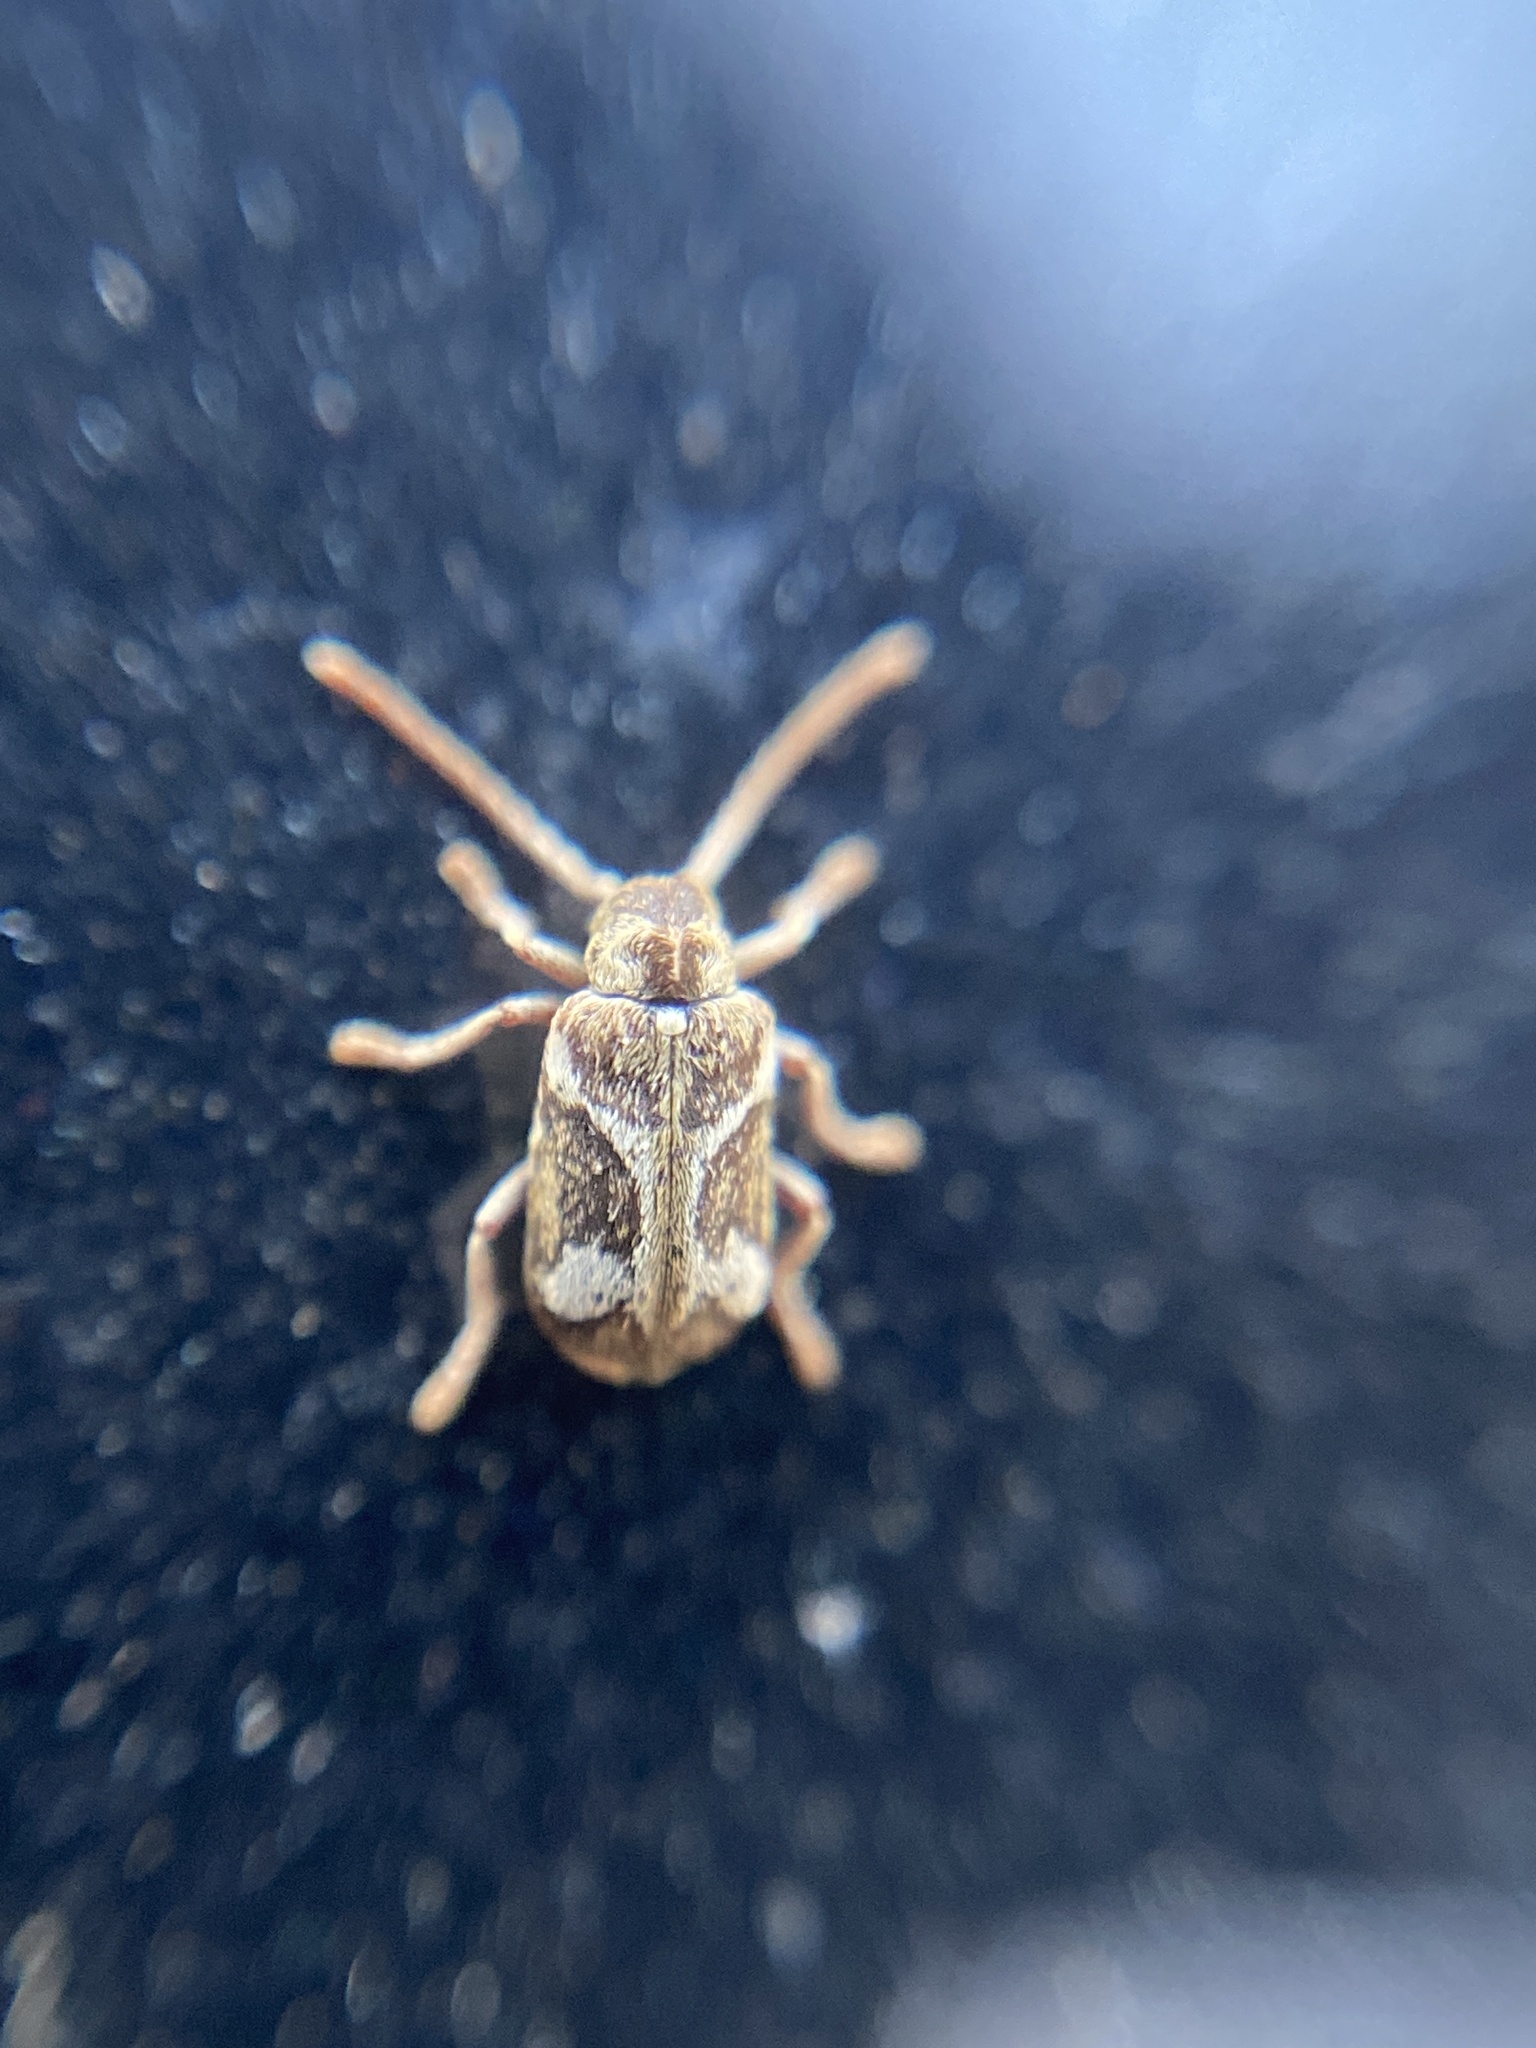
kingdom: Animalia
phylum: Arthropoda
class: Insecta
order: Coleoptera
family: Anobiidae
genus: Ptinomorphus
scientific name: Ptinomorphus imperialis
